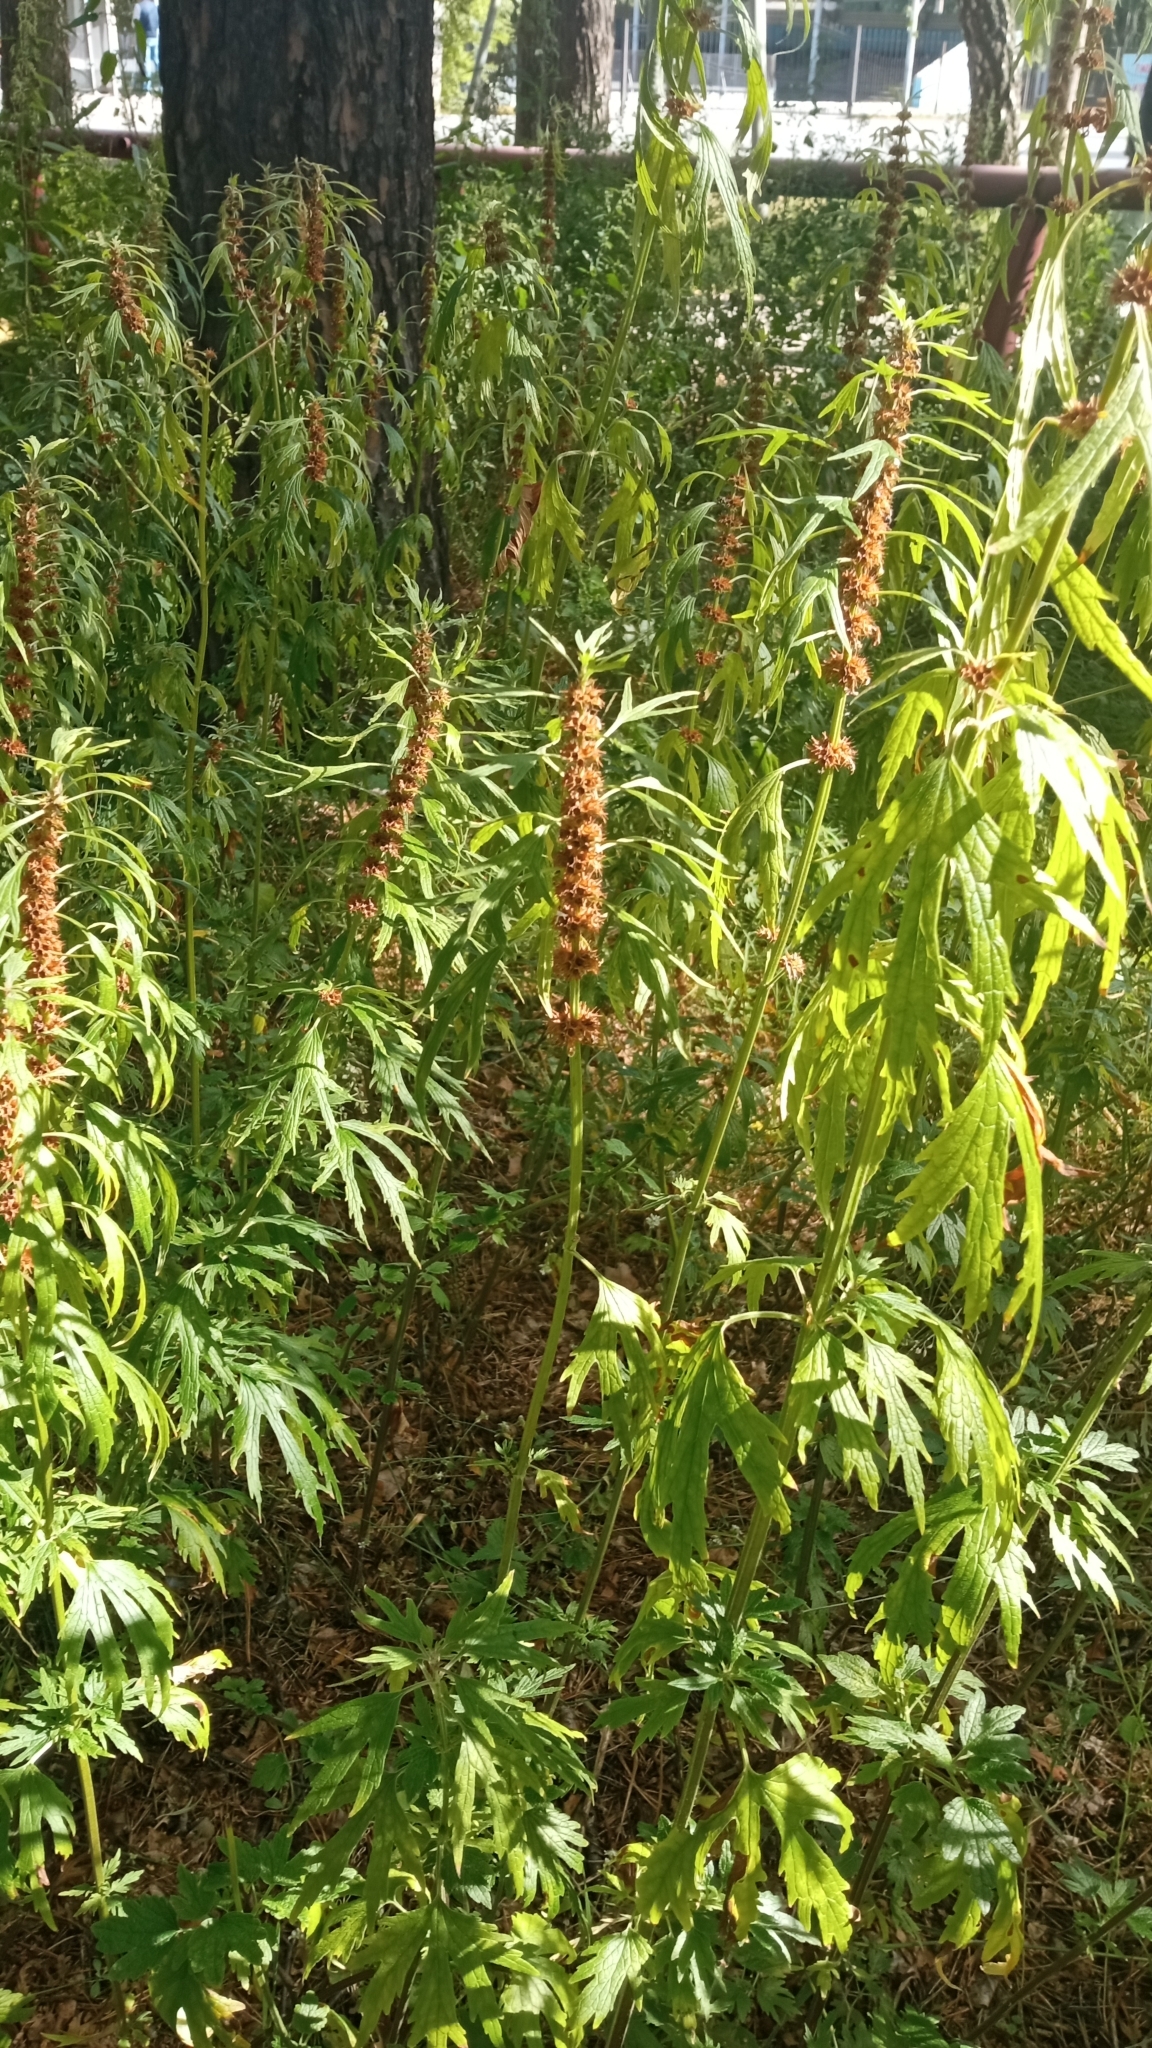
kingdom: Plantae
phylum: Tracheophyta
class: Magnoliopsida
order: Lamiales
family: Lamiaceae
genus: Leonurus
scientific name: Leonurus glaucescens
